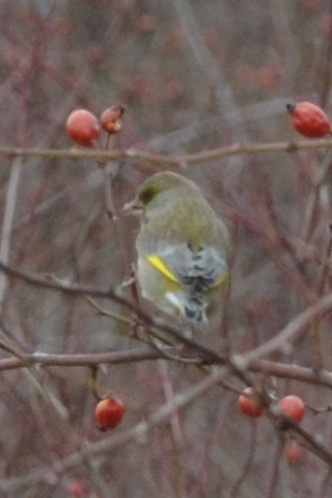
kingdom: Plantae
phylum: Tracheophyta
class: Liliopsida
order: Poales
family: Poaceae
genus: Chloris
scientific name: Chloris chloris
